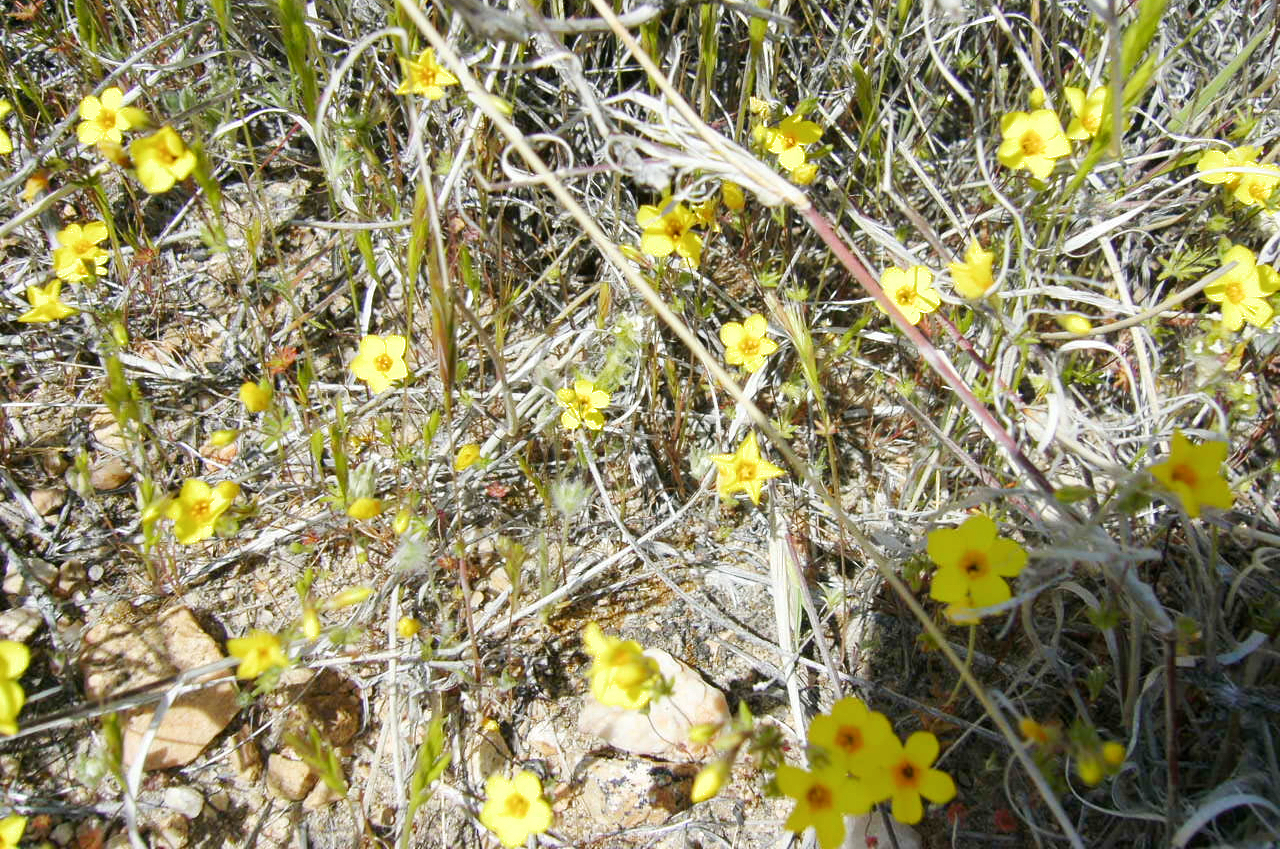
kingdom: Plantae
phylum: Tracheophyta
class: Magnoliopsida
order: Ericales
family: Polemoniaceae
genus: Leptosiphon
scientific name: Leptosiphon chrysanthus
